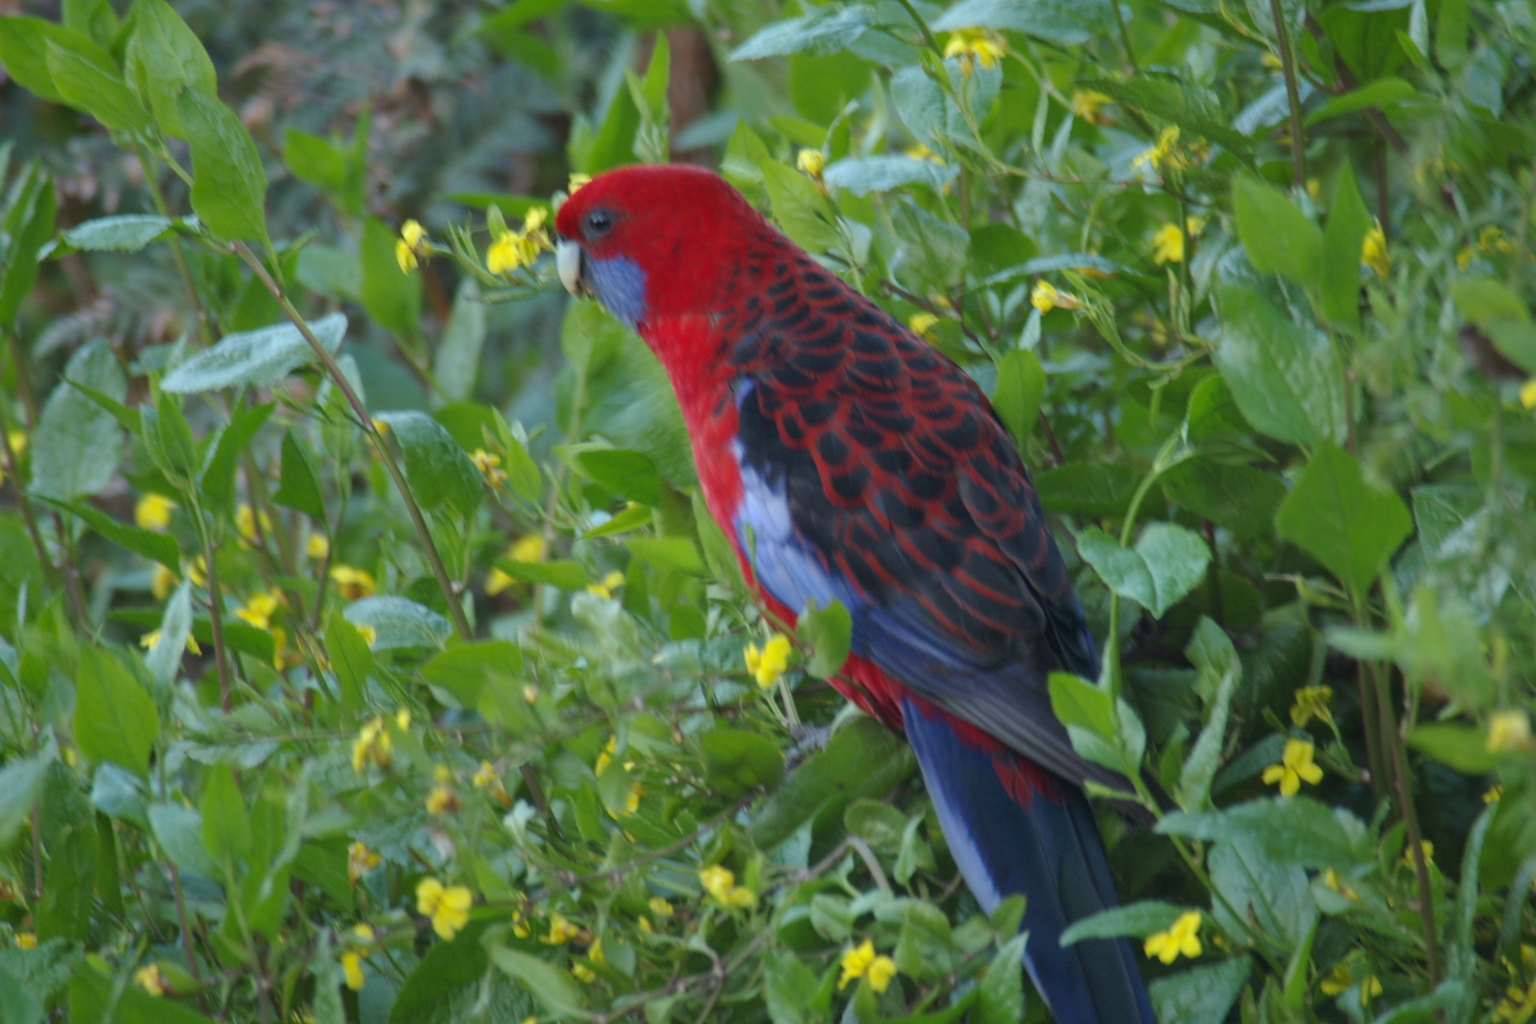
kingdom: Animalia
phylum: Chordata
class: Aves
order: Psittaciformes
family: Psittacidae
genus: Platycercus
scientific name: Platycercus elegans
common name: Crimson rosella
